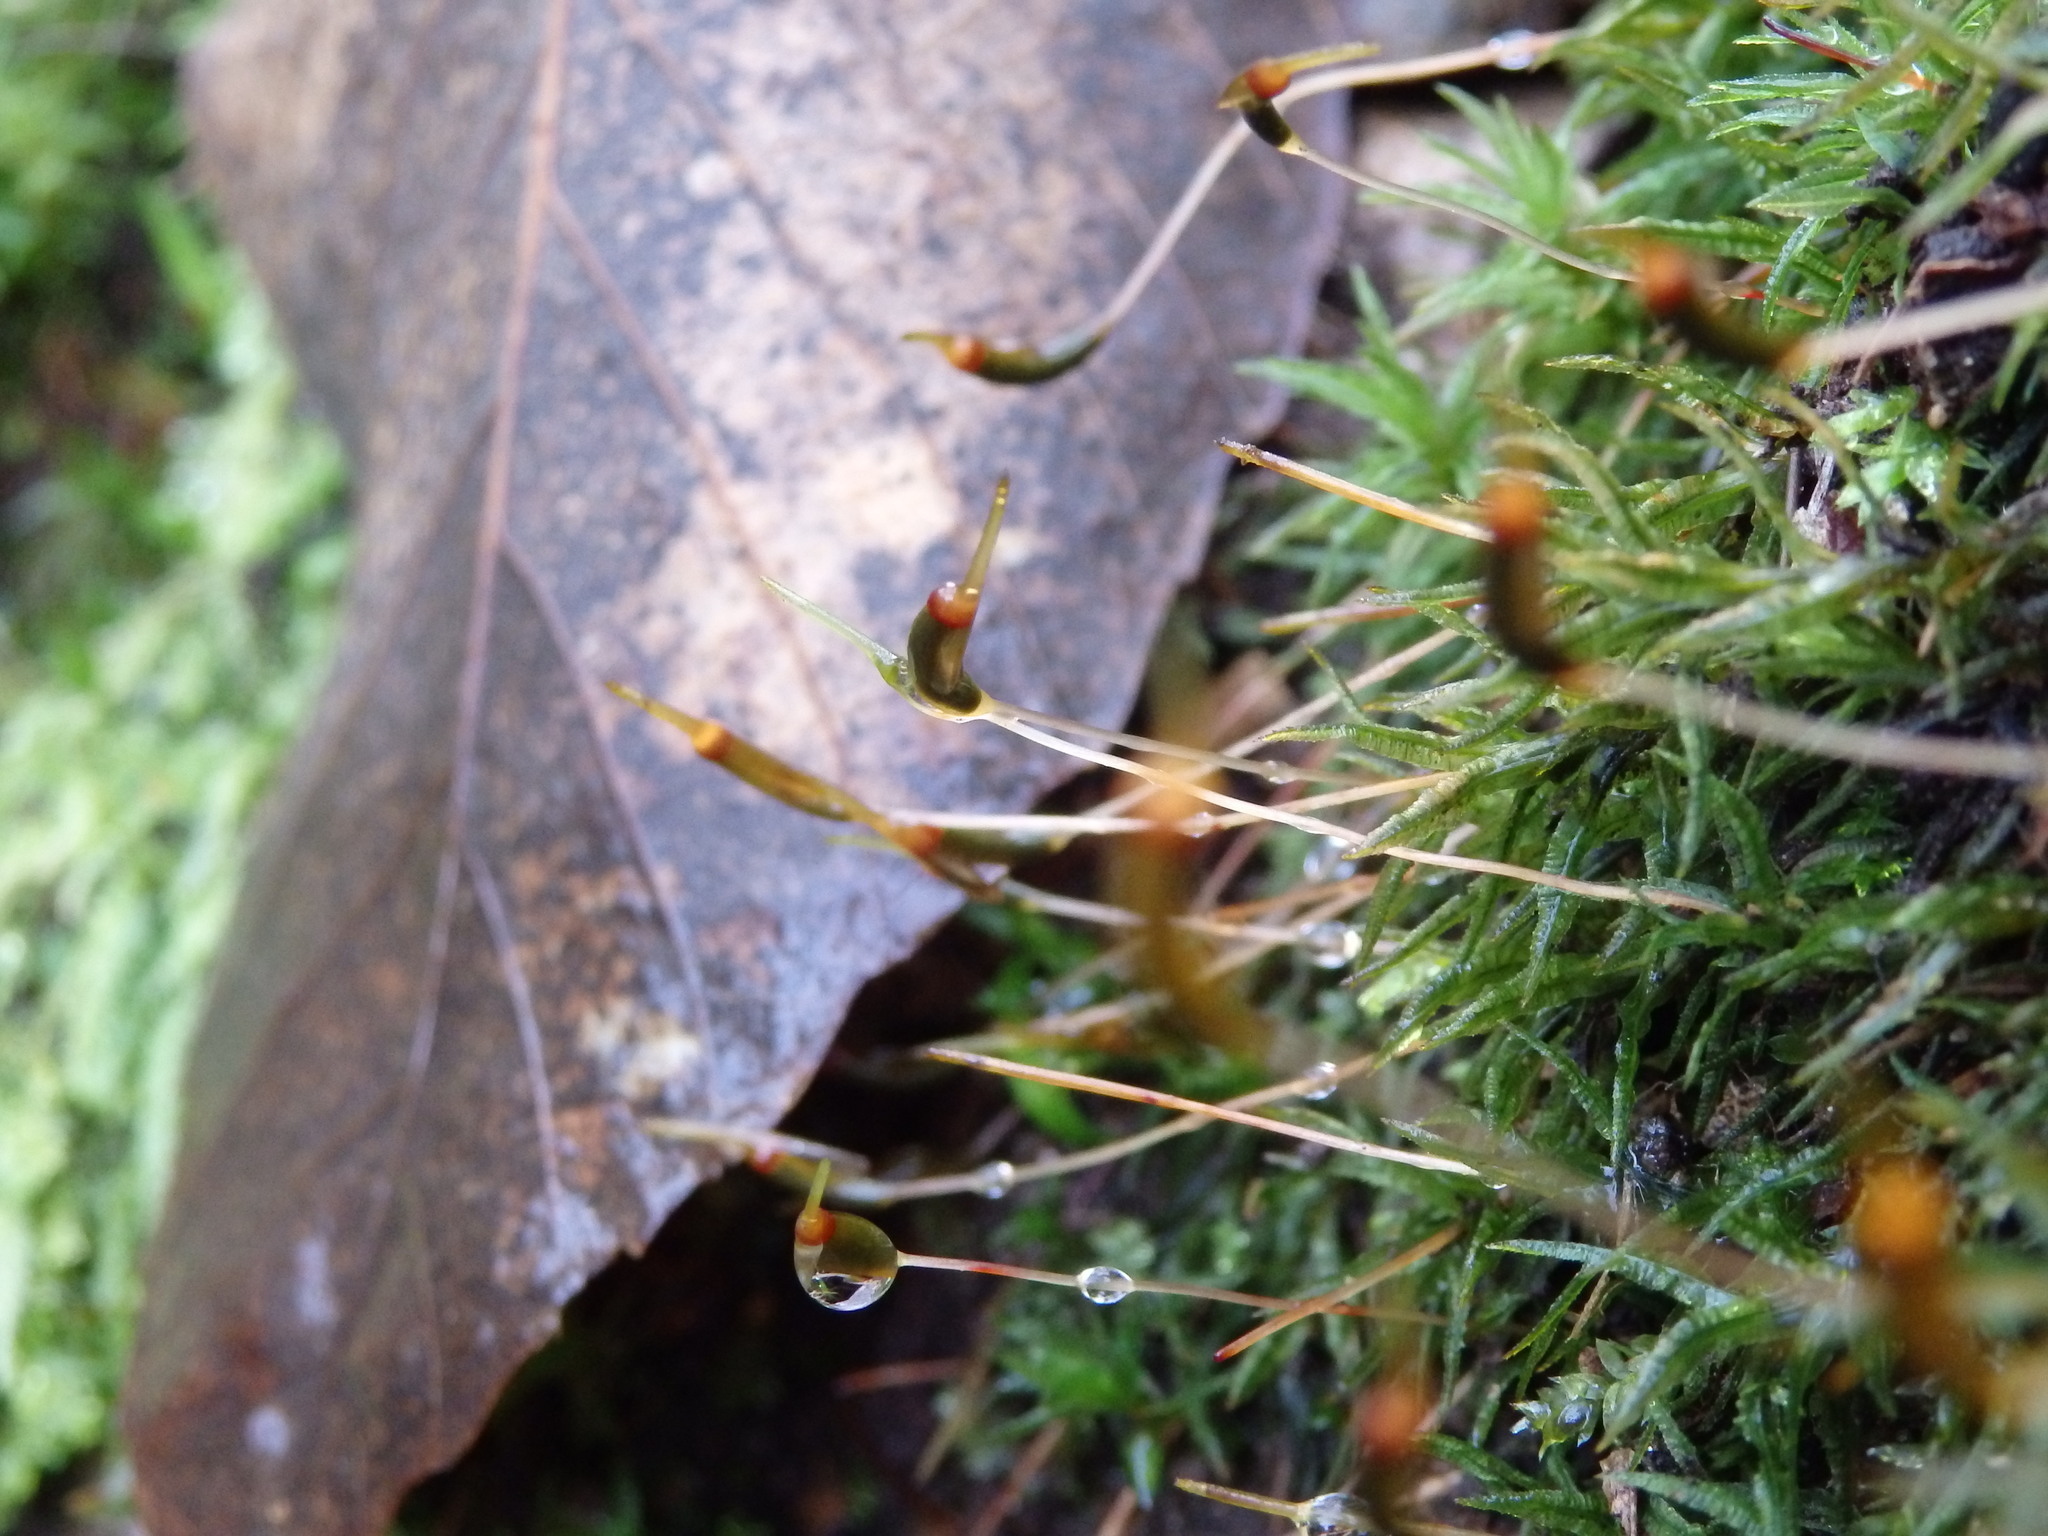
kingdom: Plantae
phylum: Bryophyta
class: Polytrichopsida
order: Polytrichales
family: Polytrichaceae
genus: Atrichum
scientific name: Atrichum undulatum
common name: Common smoothcap
